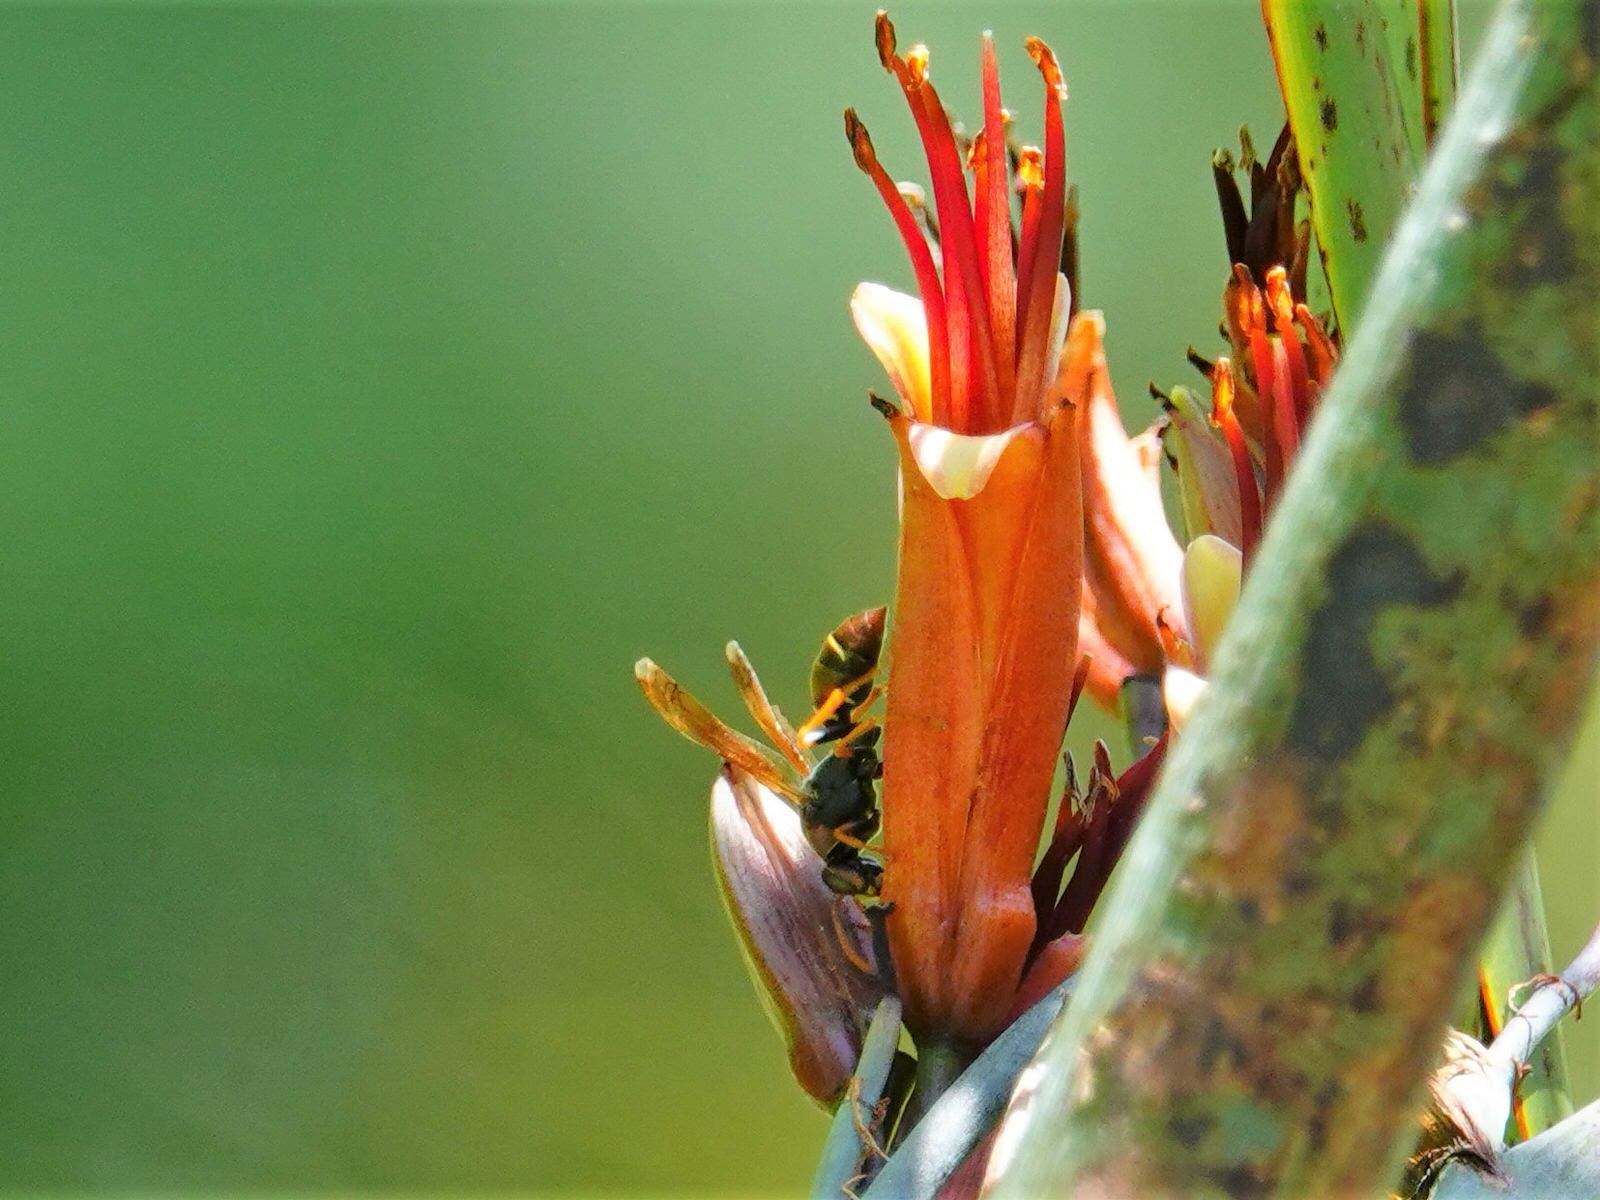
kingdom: Animalia
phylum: Arthropoda
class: Insecta
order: Hymenoptera
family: Eumenidae
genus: Polistes
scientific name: Polistes humilis
